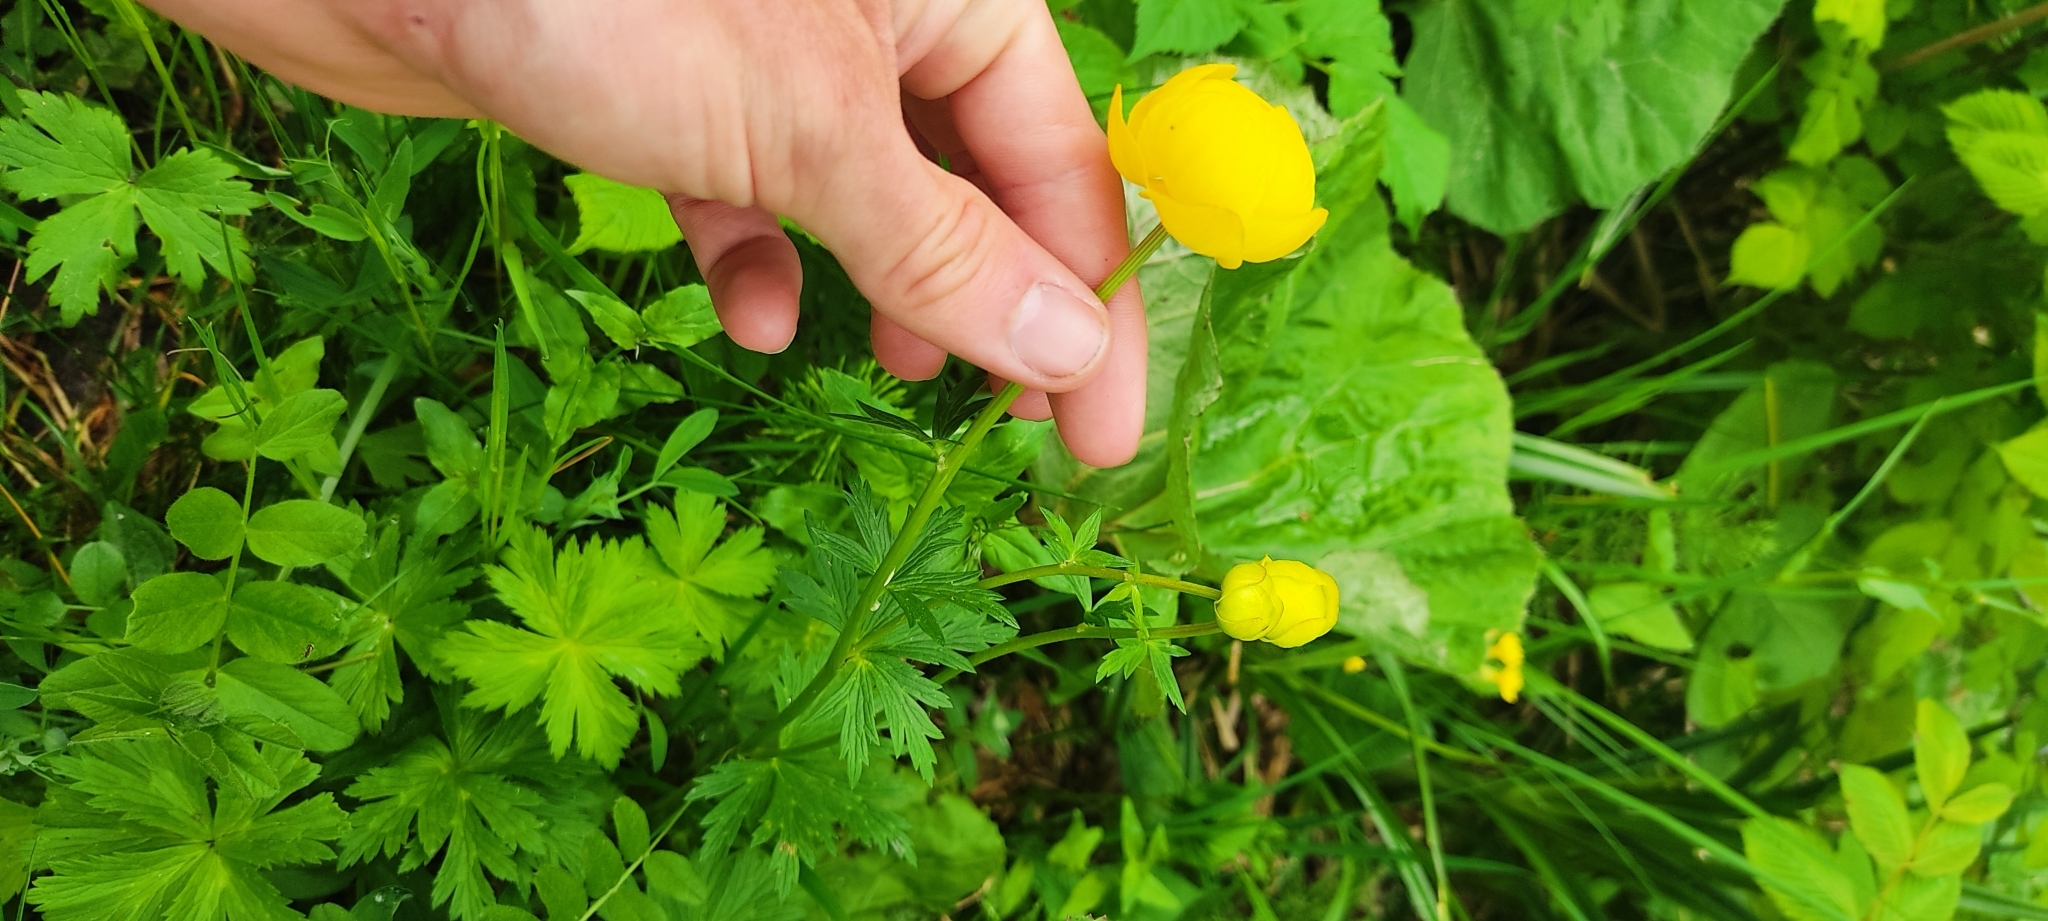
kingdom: Plantae
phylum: Tracheophyta
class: Magnoliopsida
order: Ranunculales
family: Ranunculaceae
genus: Trollius
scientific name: Trollius europaeus
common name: European globeflower
